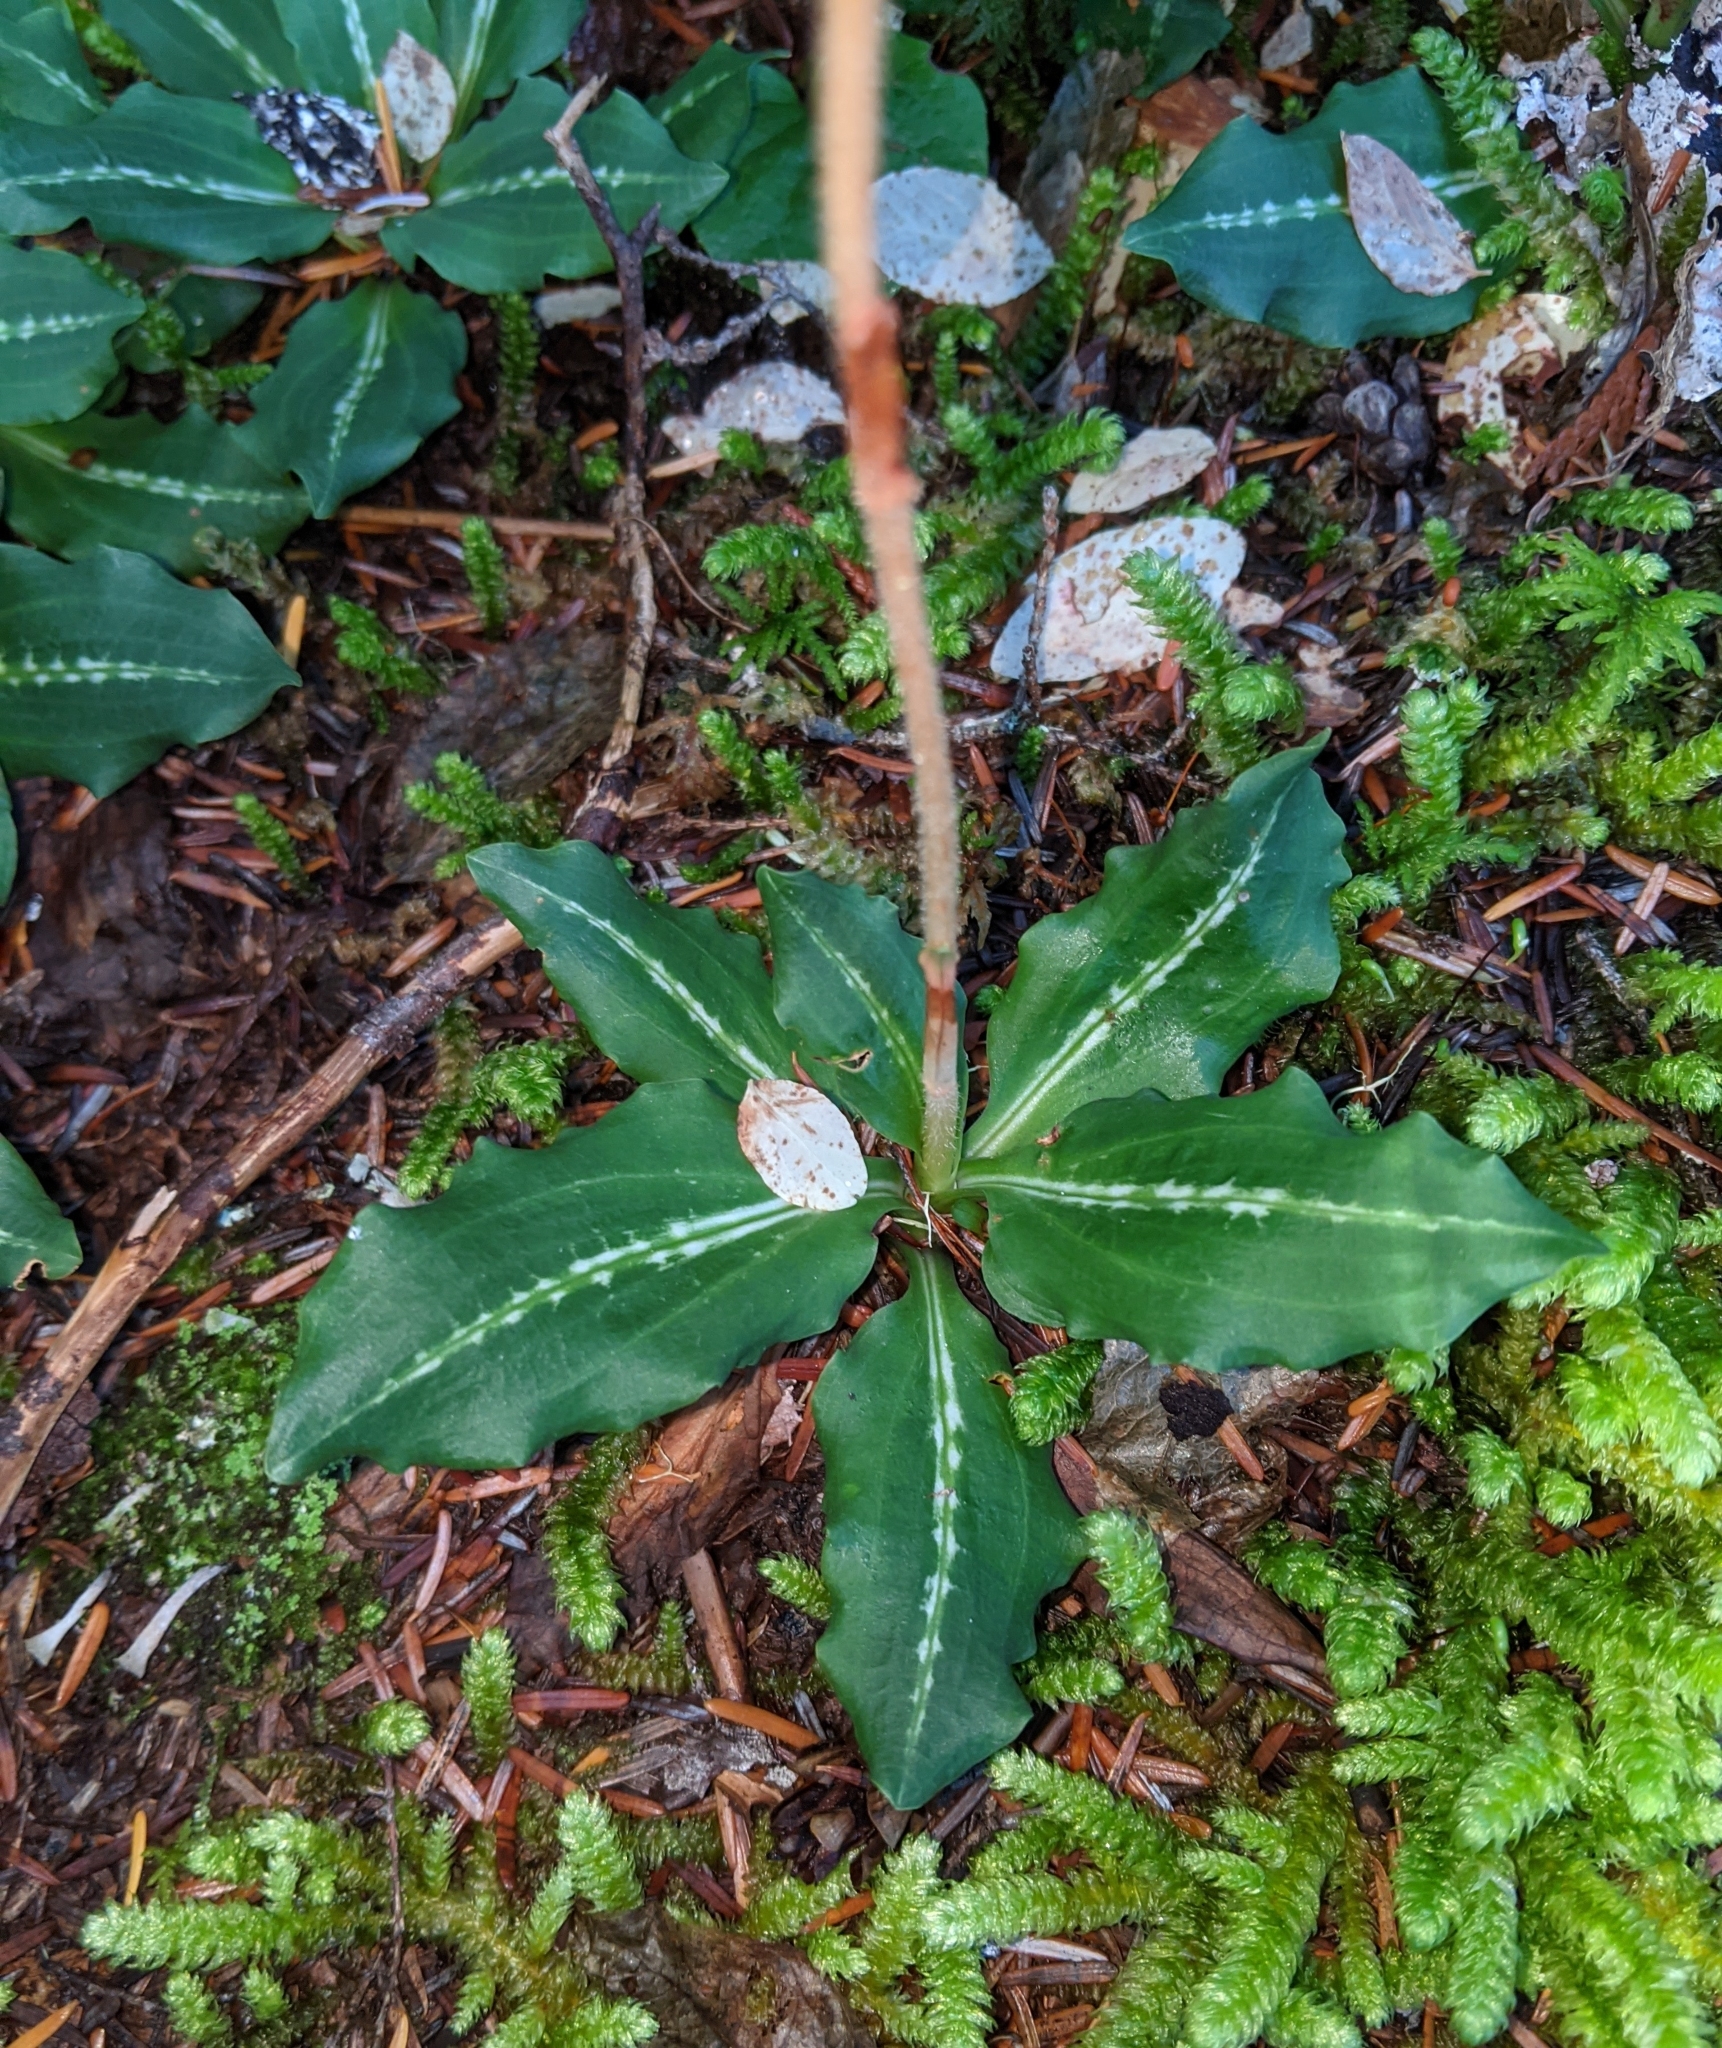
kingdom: Plantae
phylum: Tracheophyta
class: Liliopsida
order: Asparagales
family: Orchidaceae
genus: Goodyera
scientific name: Goodyera oblongifolia
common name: Giant rattlesnake-plantain
